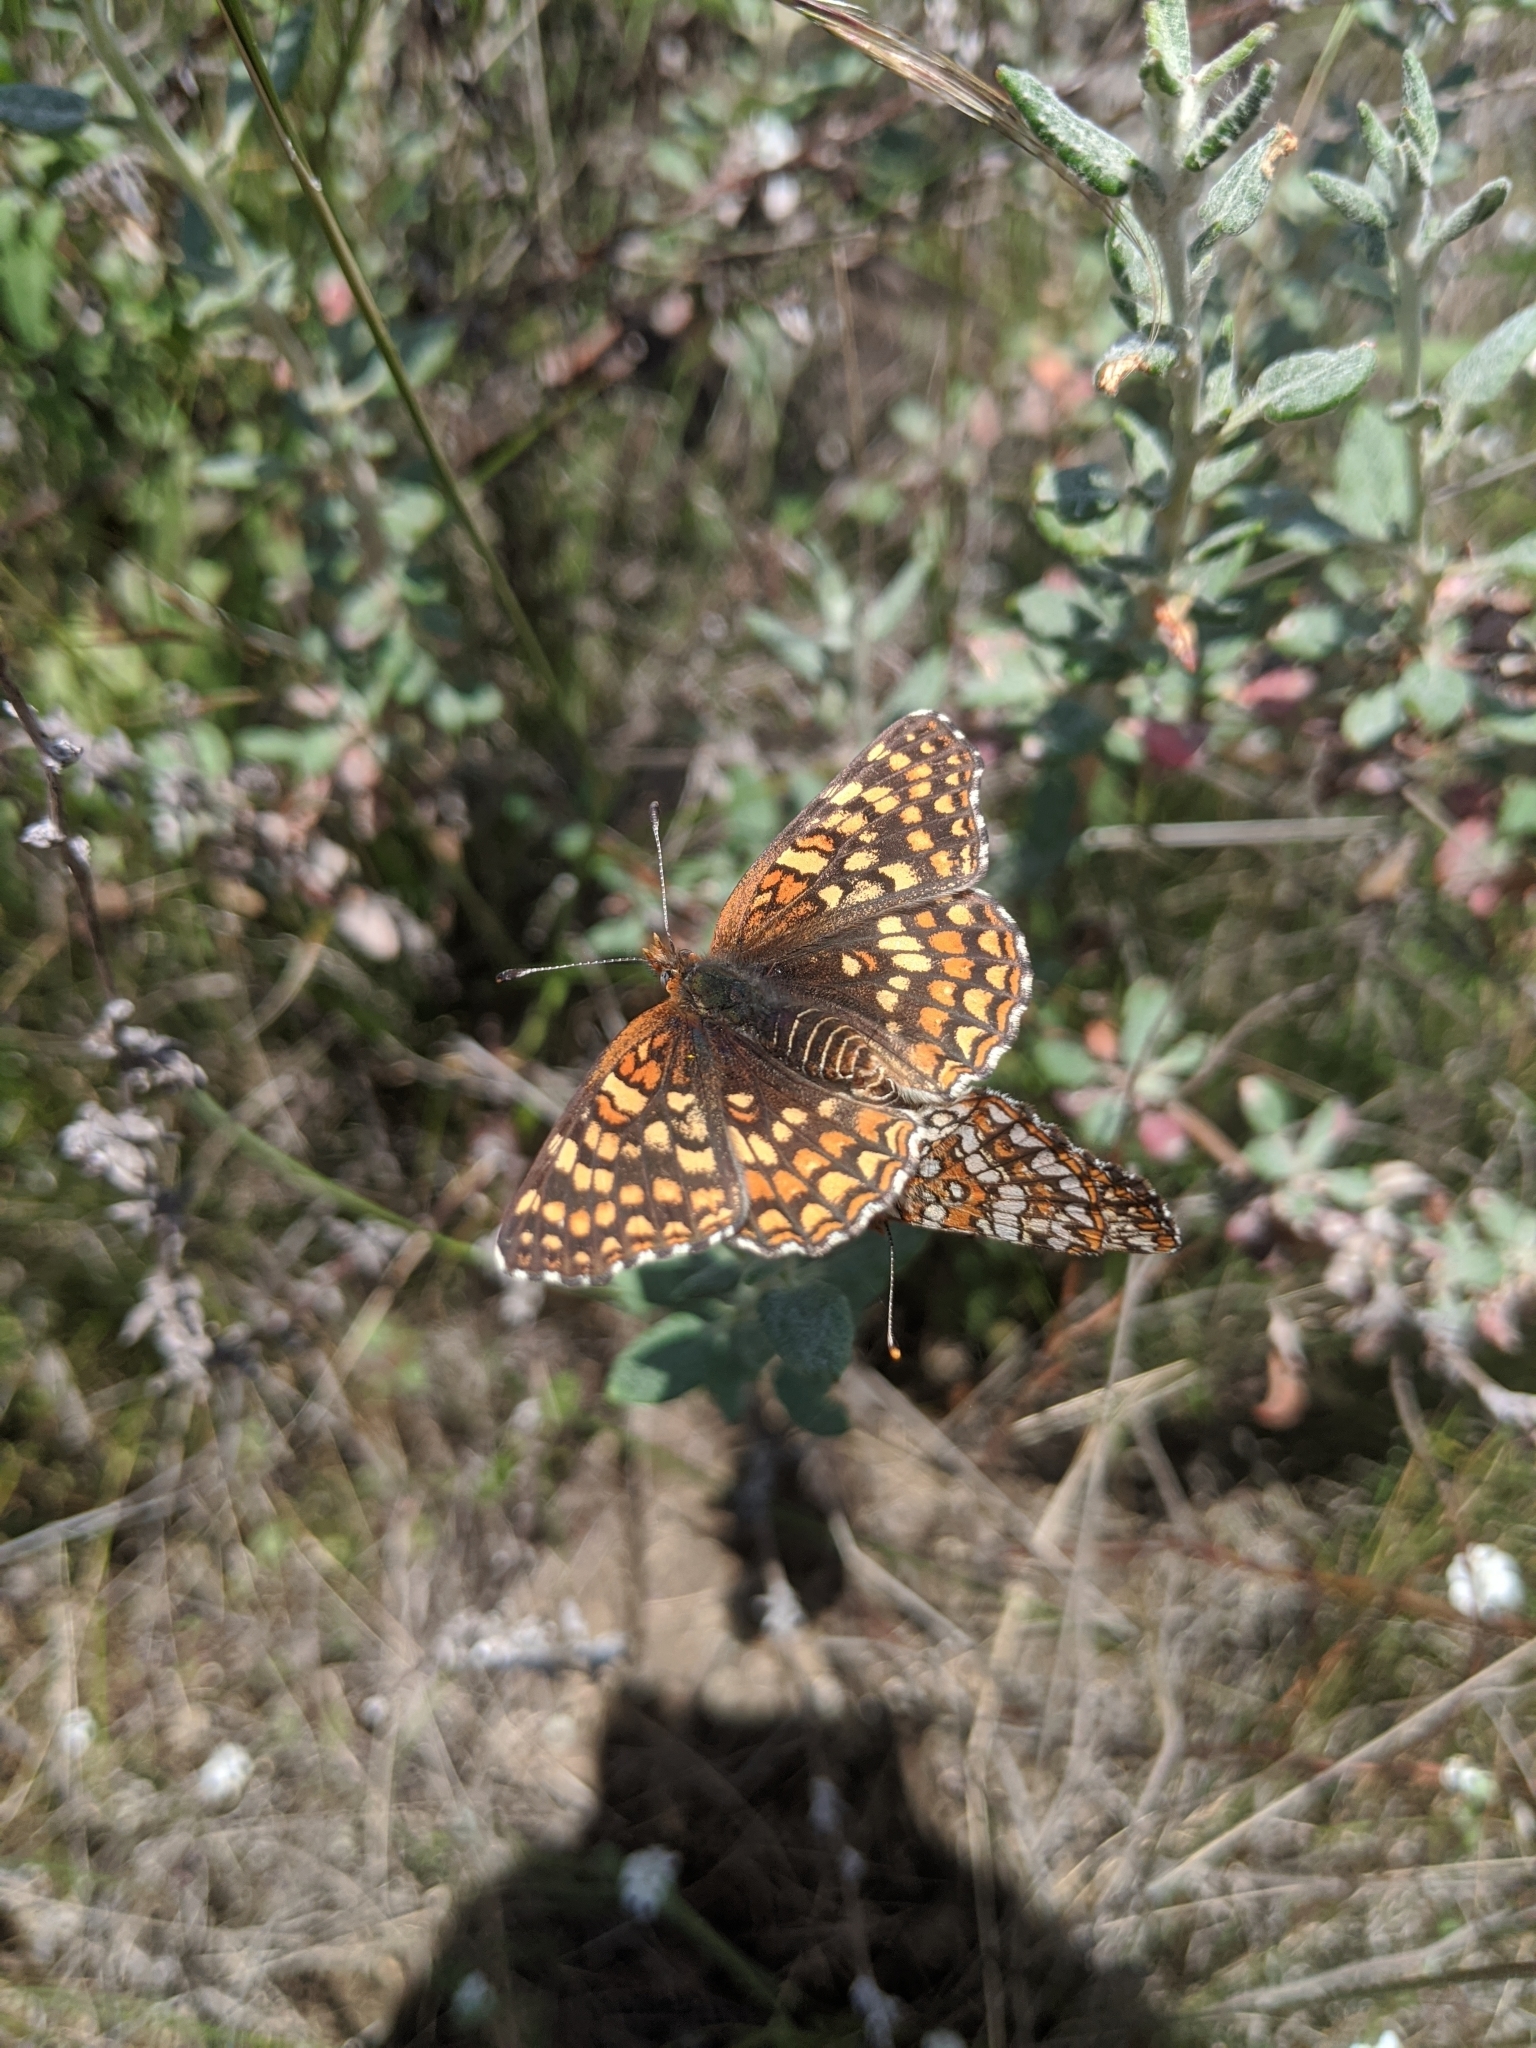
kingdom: Animalia
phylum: Arthropoda
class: Insecta
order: Lepidoptera
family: Nymphalidae
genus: Chlosyne
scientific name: Chlosyne gabbii
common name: Gabb's checkerspot
